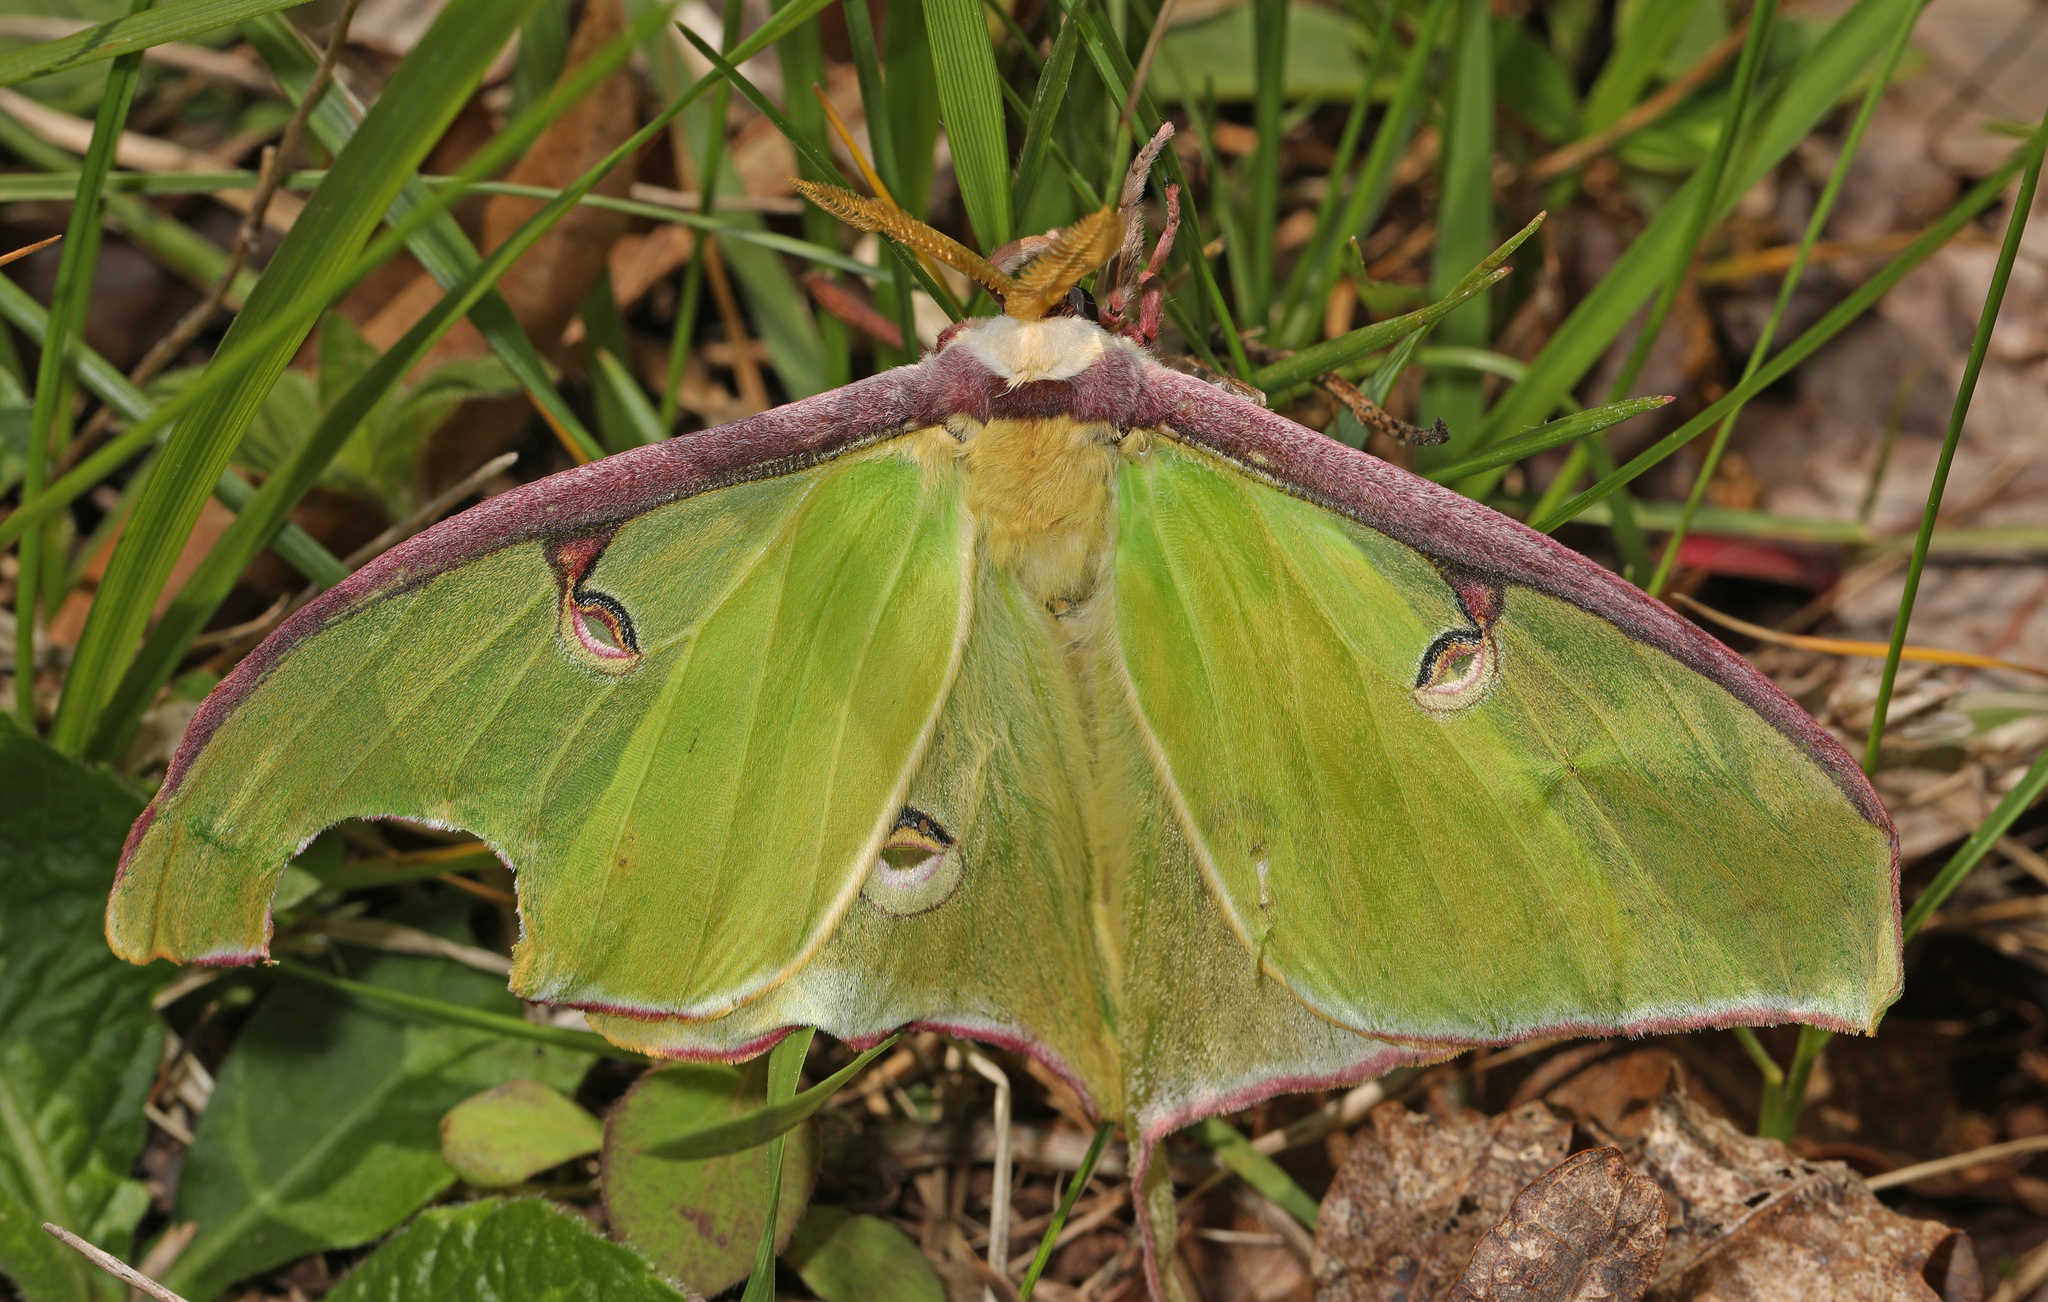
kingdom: Animalia
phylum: Arthropoda
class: Insecta
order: Lepidoptera
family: Saturniidae
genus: Actias
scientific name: Actias luna
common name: Luna moth
